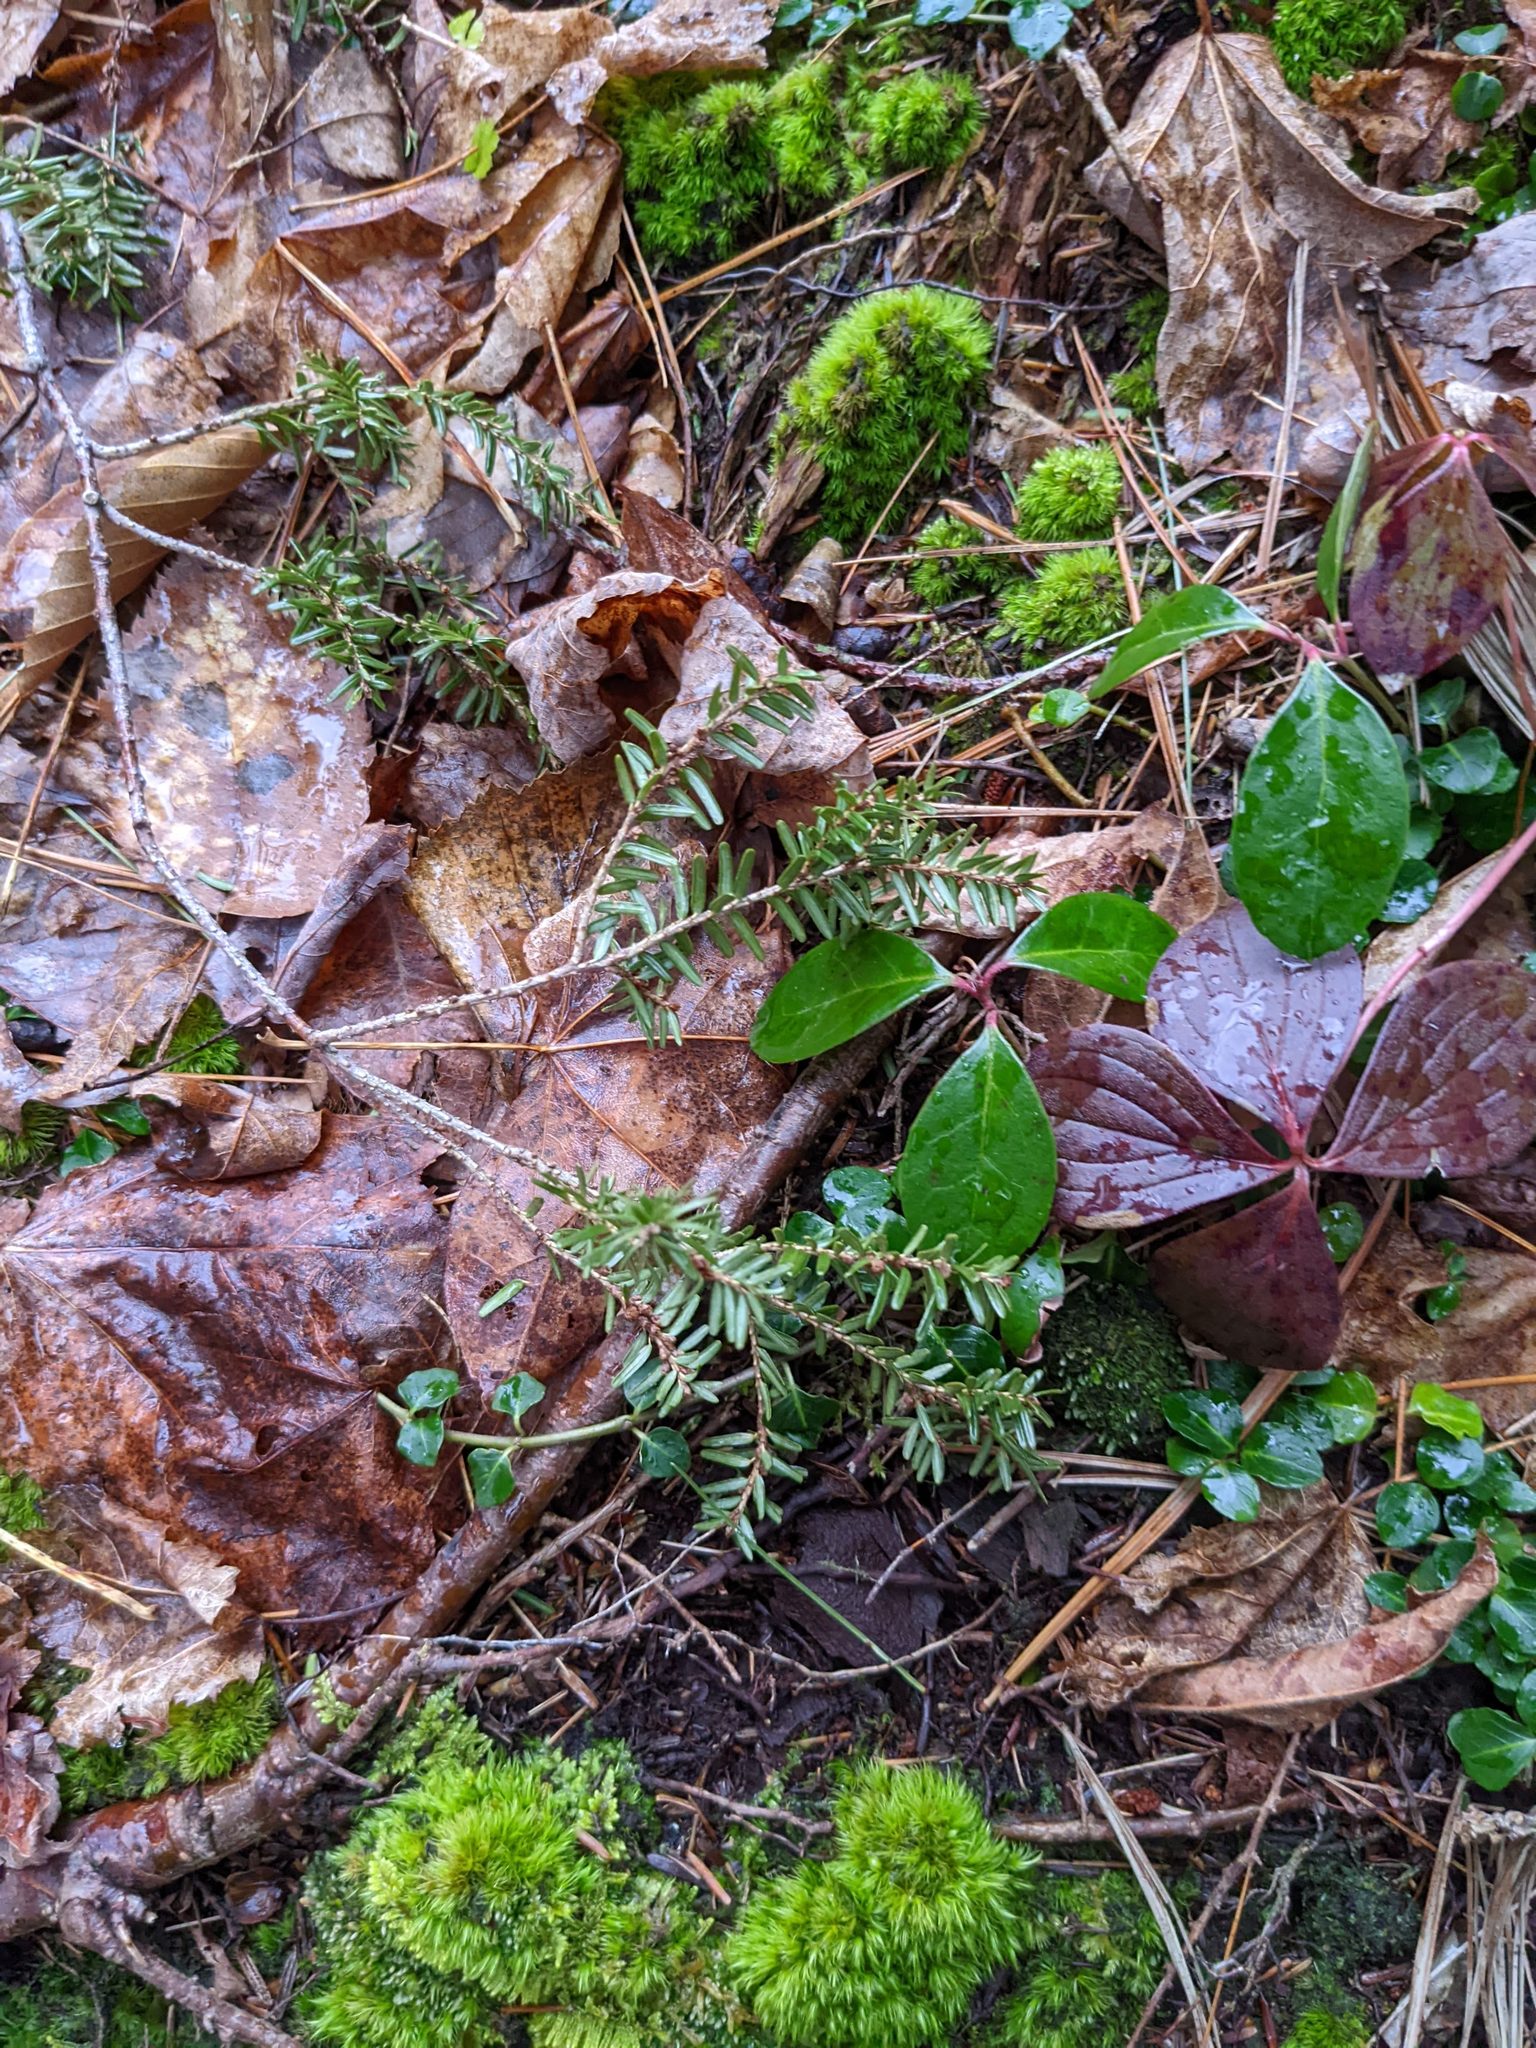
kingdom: Plantae
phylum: Tracheophyta
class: Magnoliopsida
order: Ericales
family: Ericaceae
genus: Gaultheria
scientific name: Gaultheria procumbens
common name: Checkerberry
